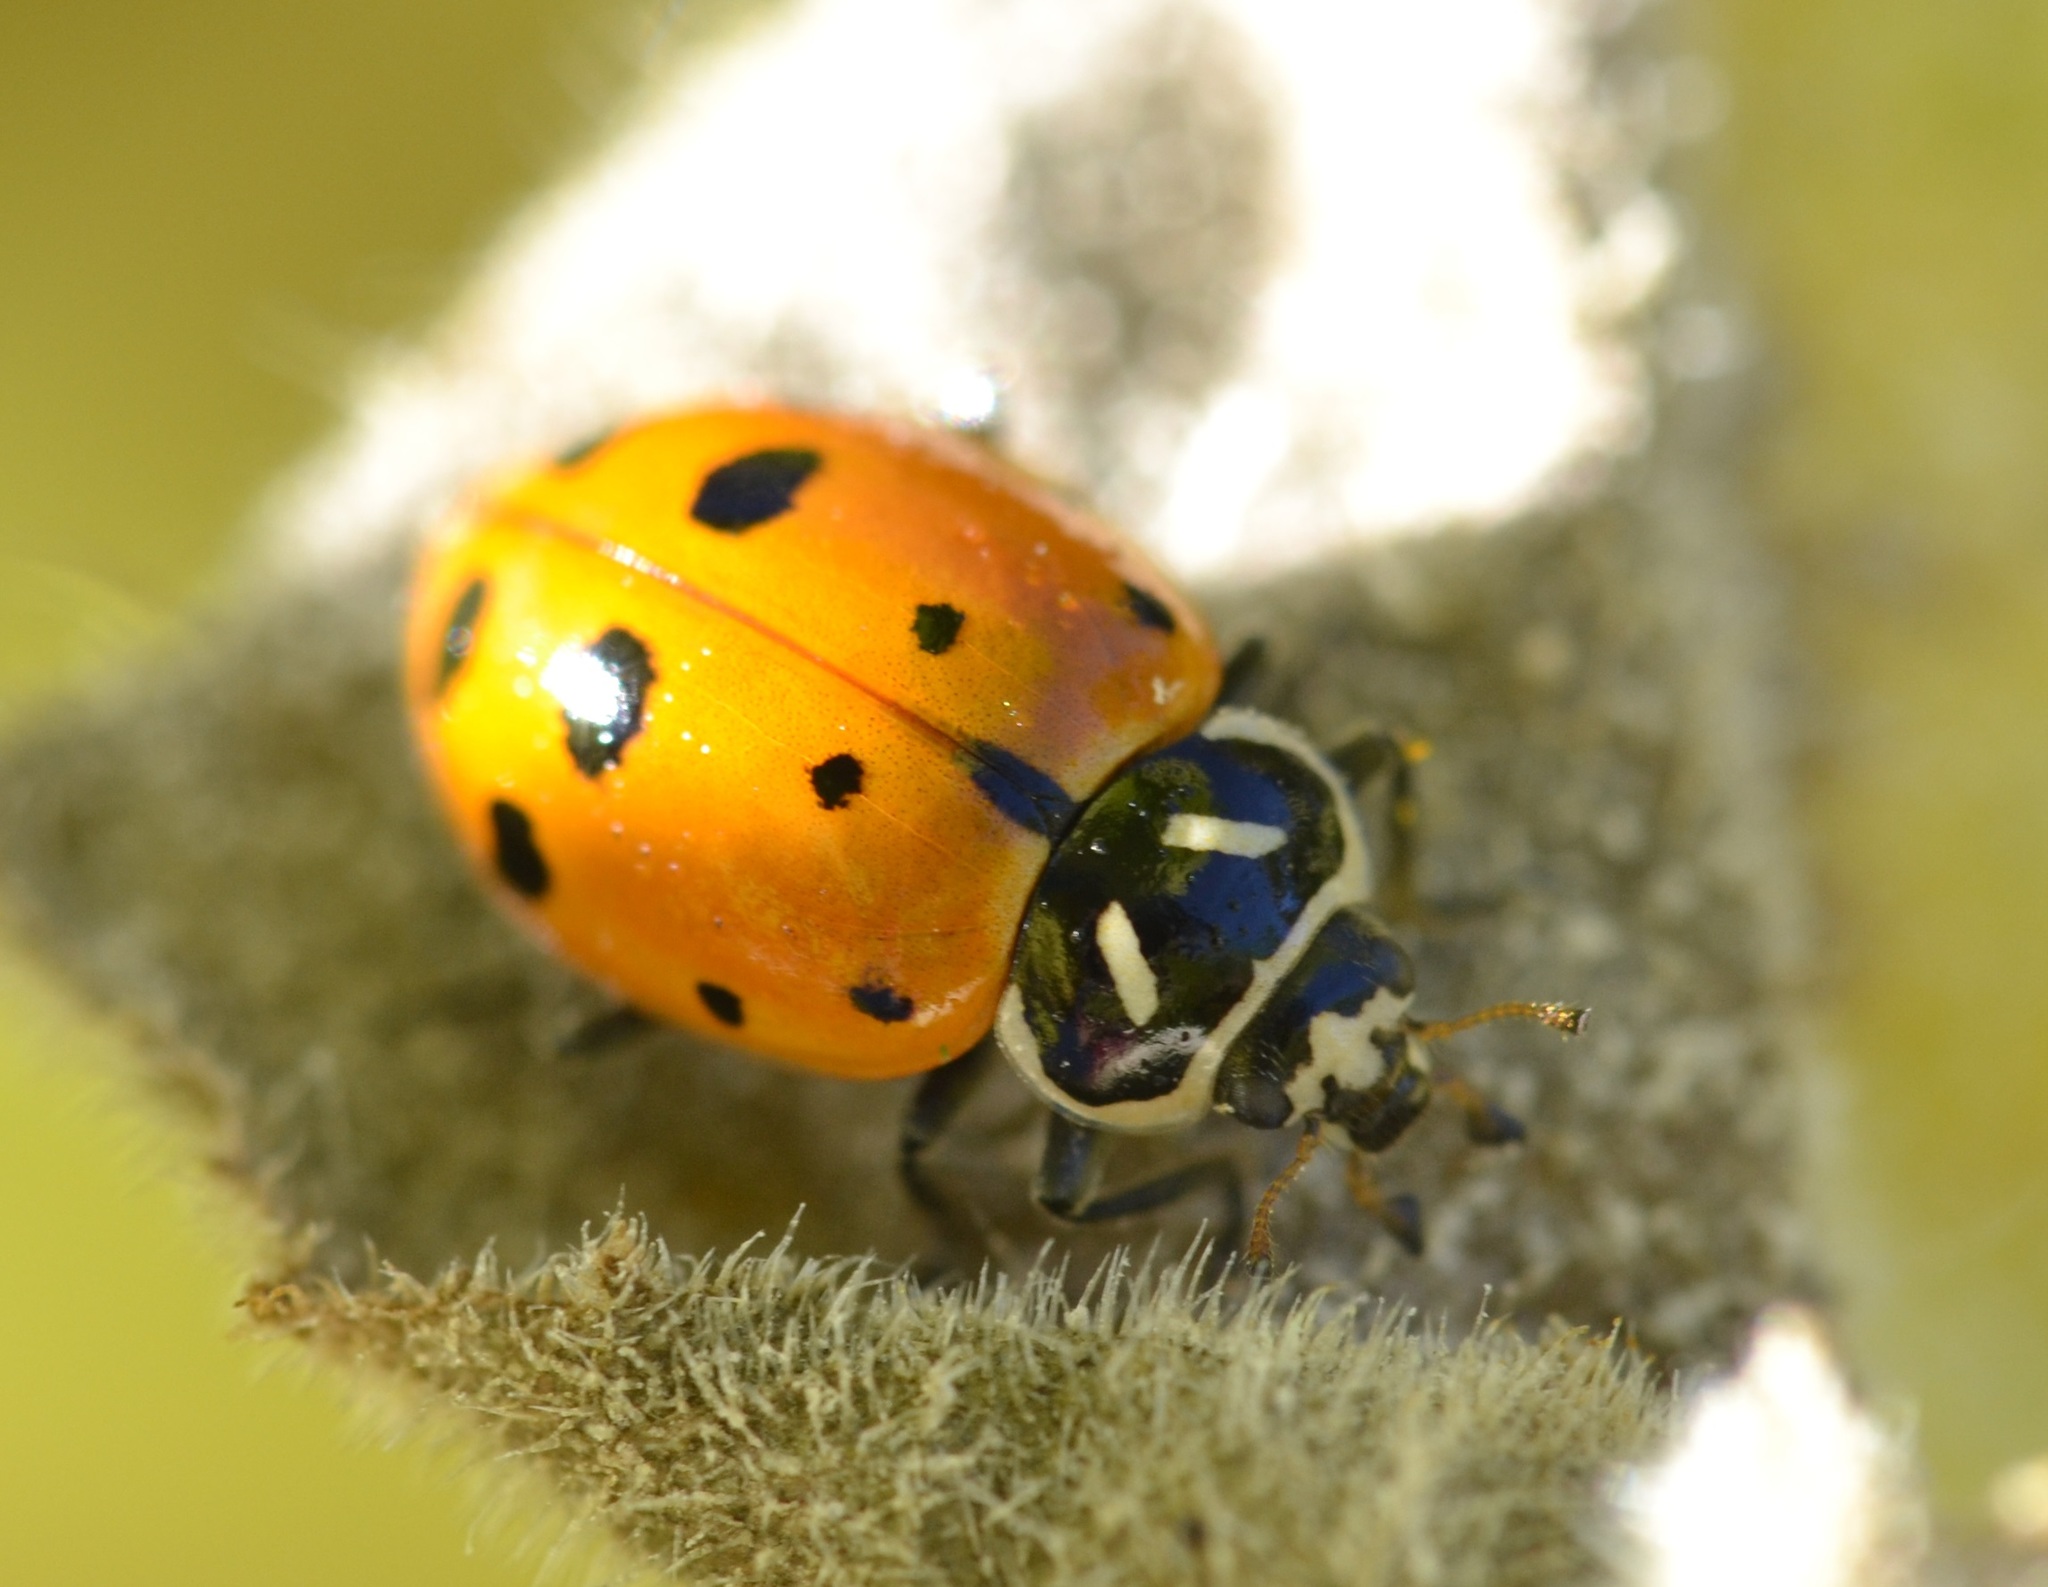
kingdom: Animalia
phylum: Arthropoda
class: Insecta
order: Coleoptera
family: Coccinellidae
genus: Hippodamia
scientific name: Hippodamia convergens
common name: Convergent lady beetle
